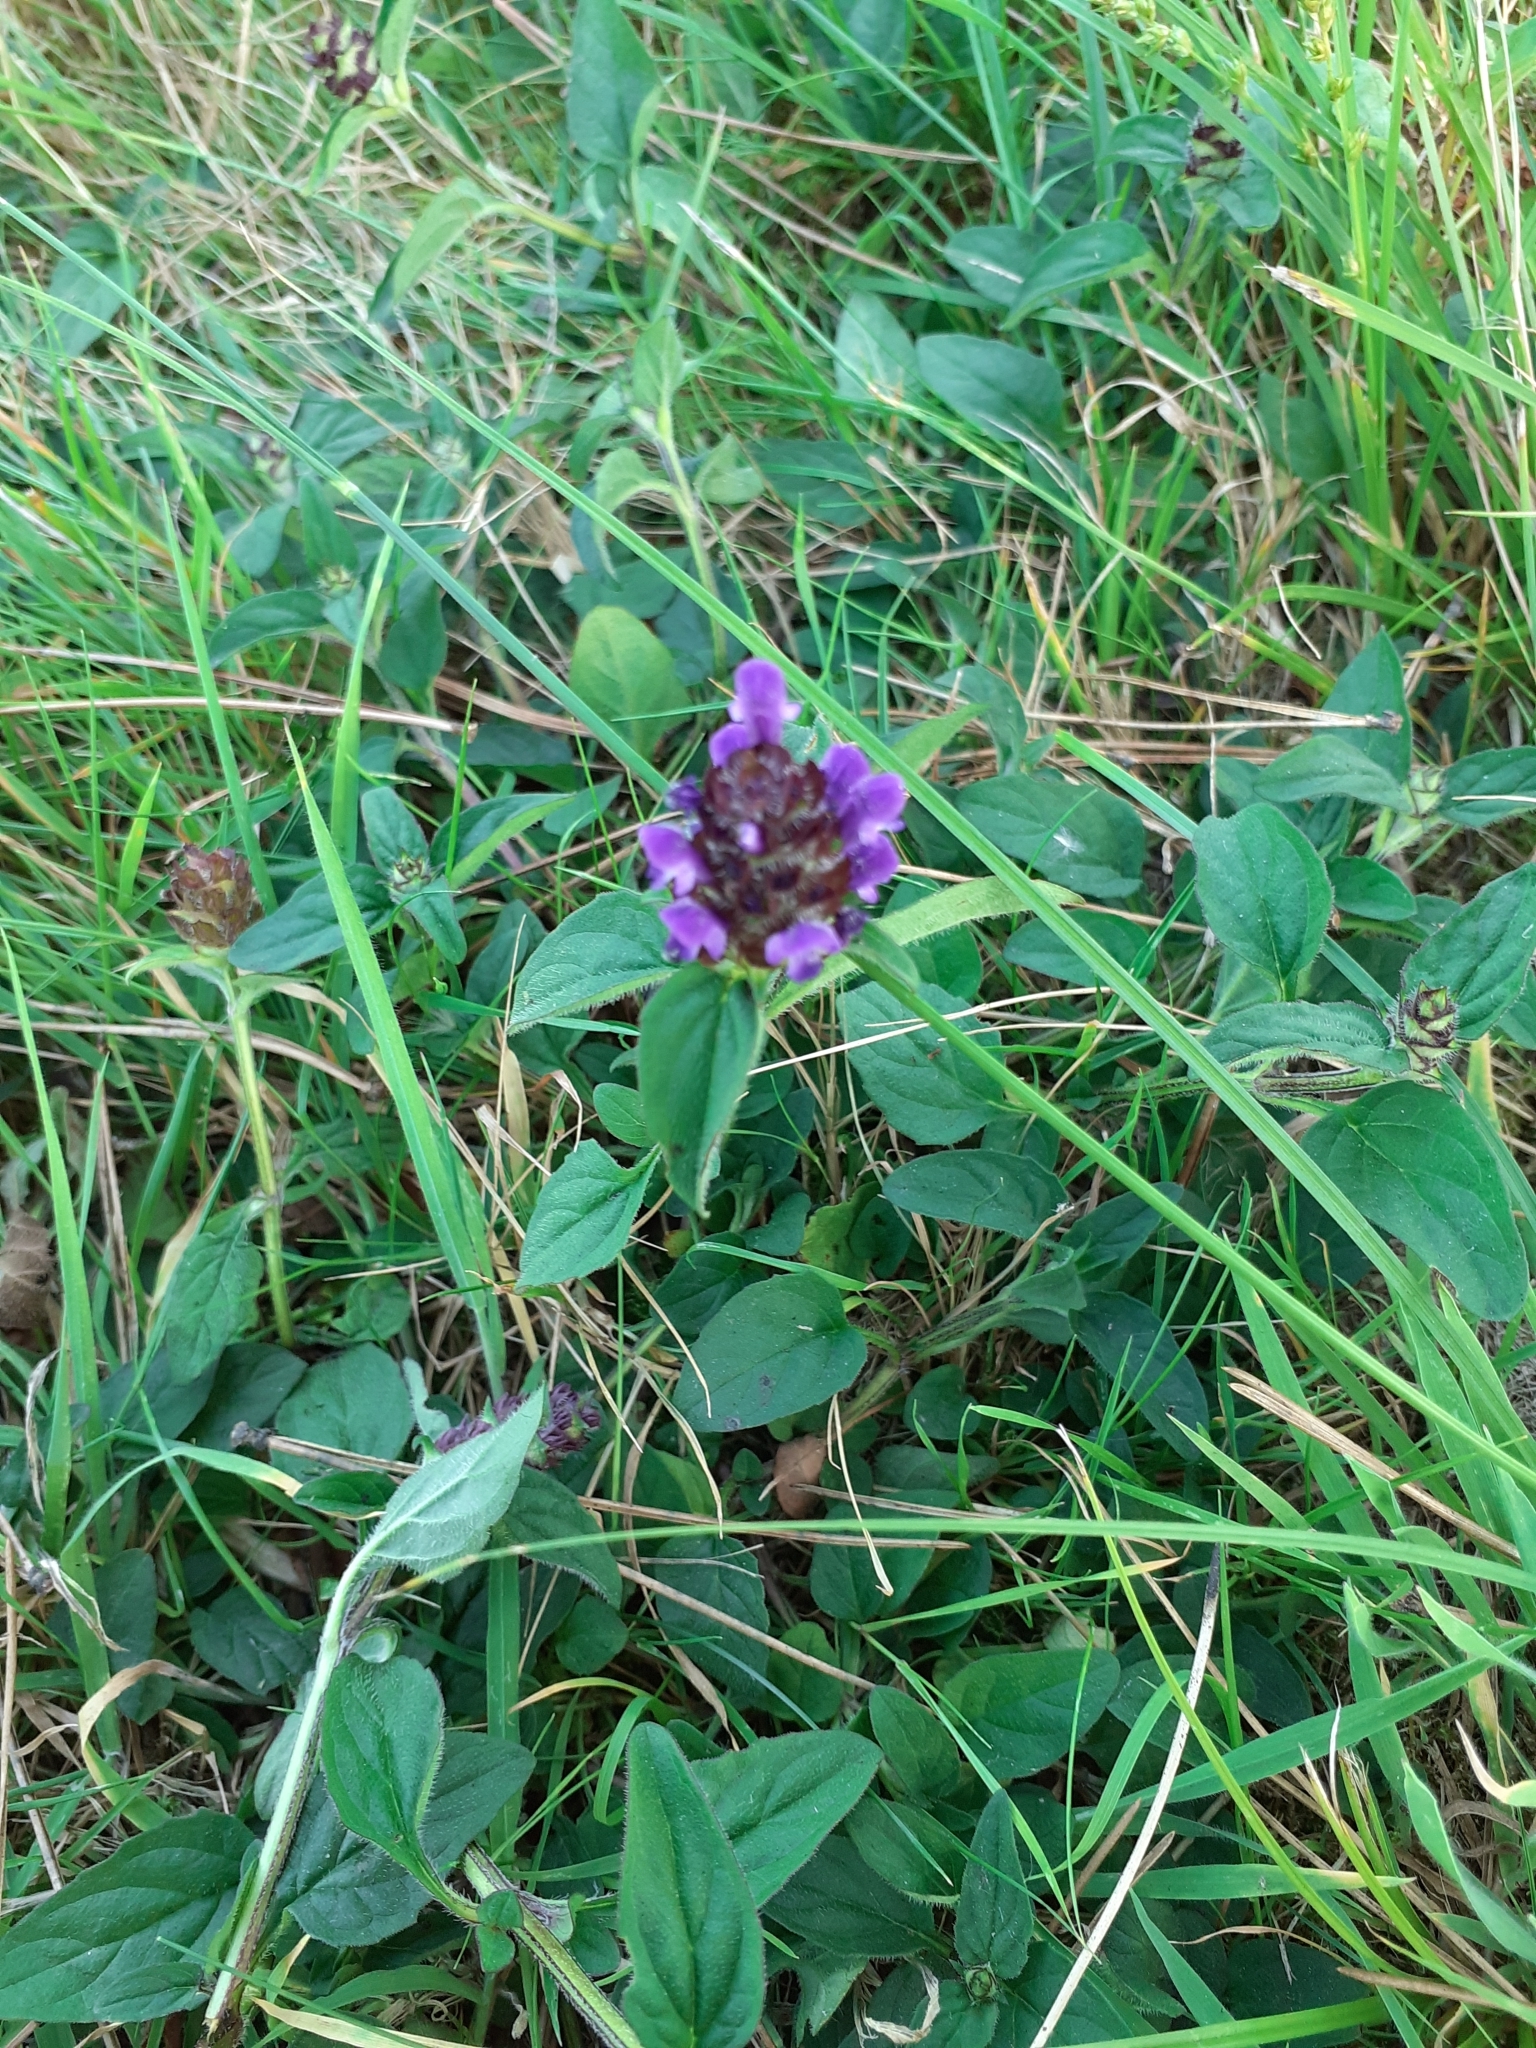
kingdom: Plantae
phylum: Tracheophyta
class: Magnoliopsida
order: Lamiales
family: Lamiaceae
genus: Prunella
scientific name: Prunella vulgaris
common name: Heal-all
